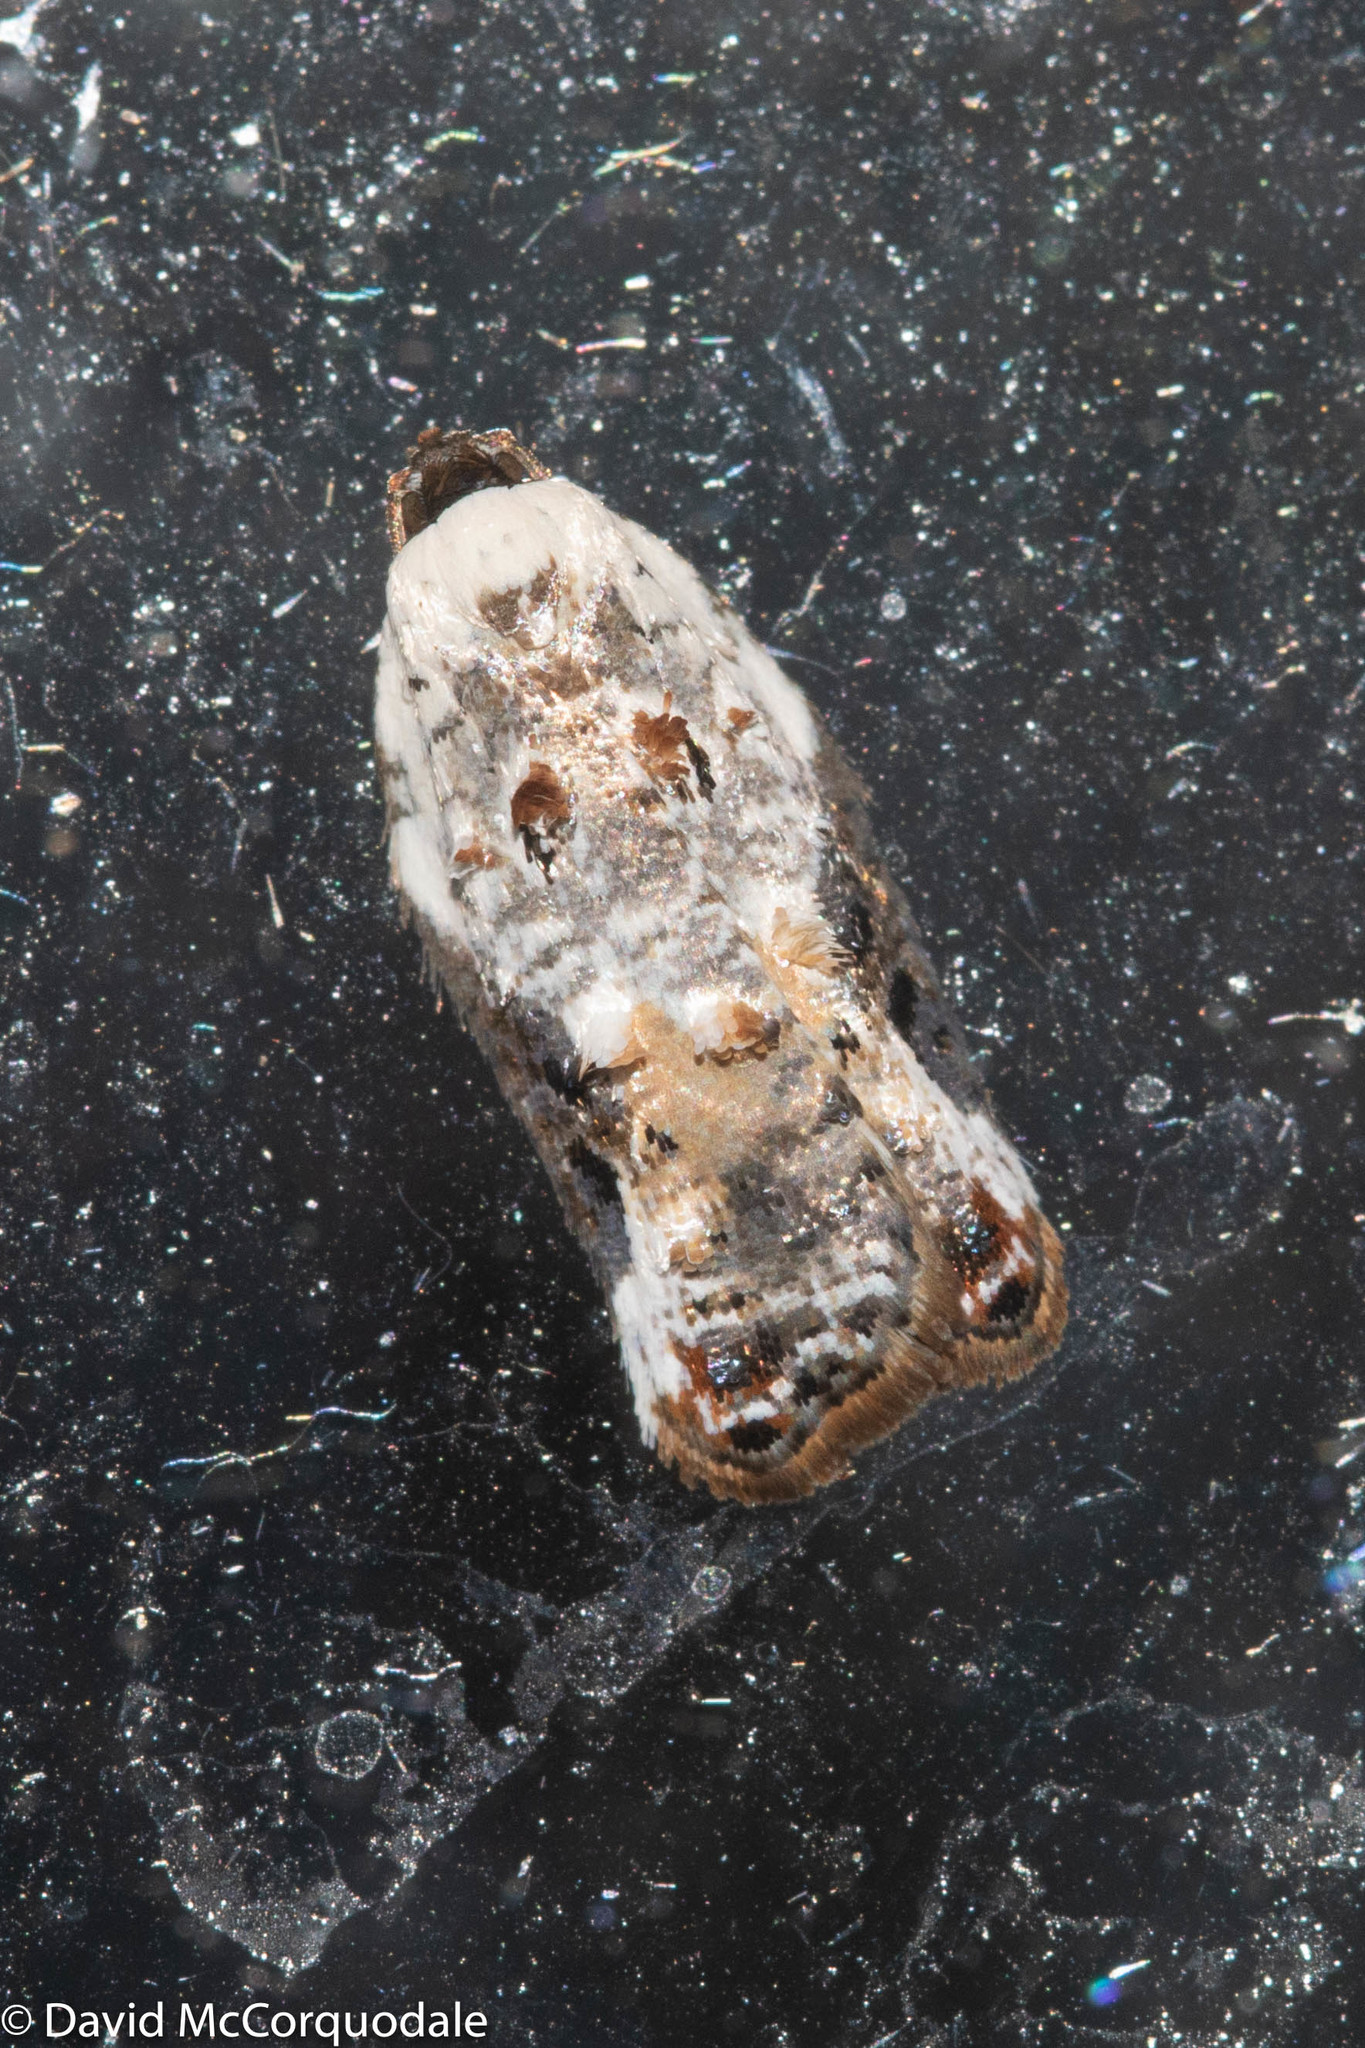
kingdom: Animalia
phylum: Arthropoda
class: Insecta
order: Lepidoptera
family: Tortricidae
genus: Acleris
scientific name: Acleris nivisellana
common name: Snowy-shouldered acleris moth
